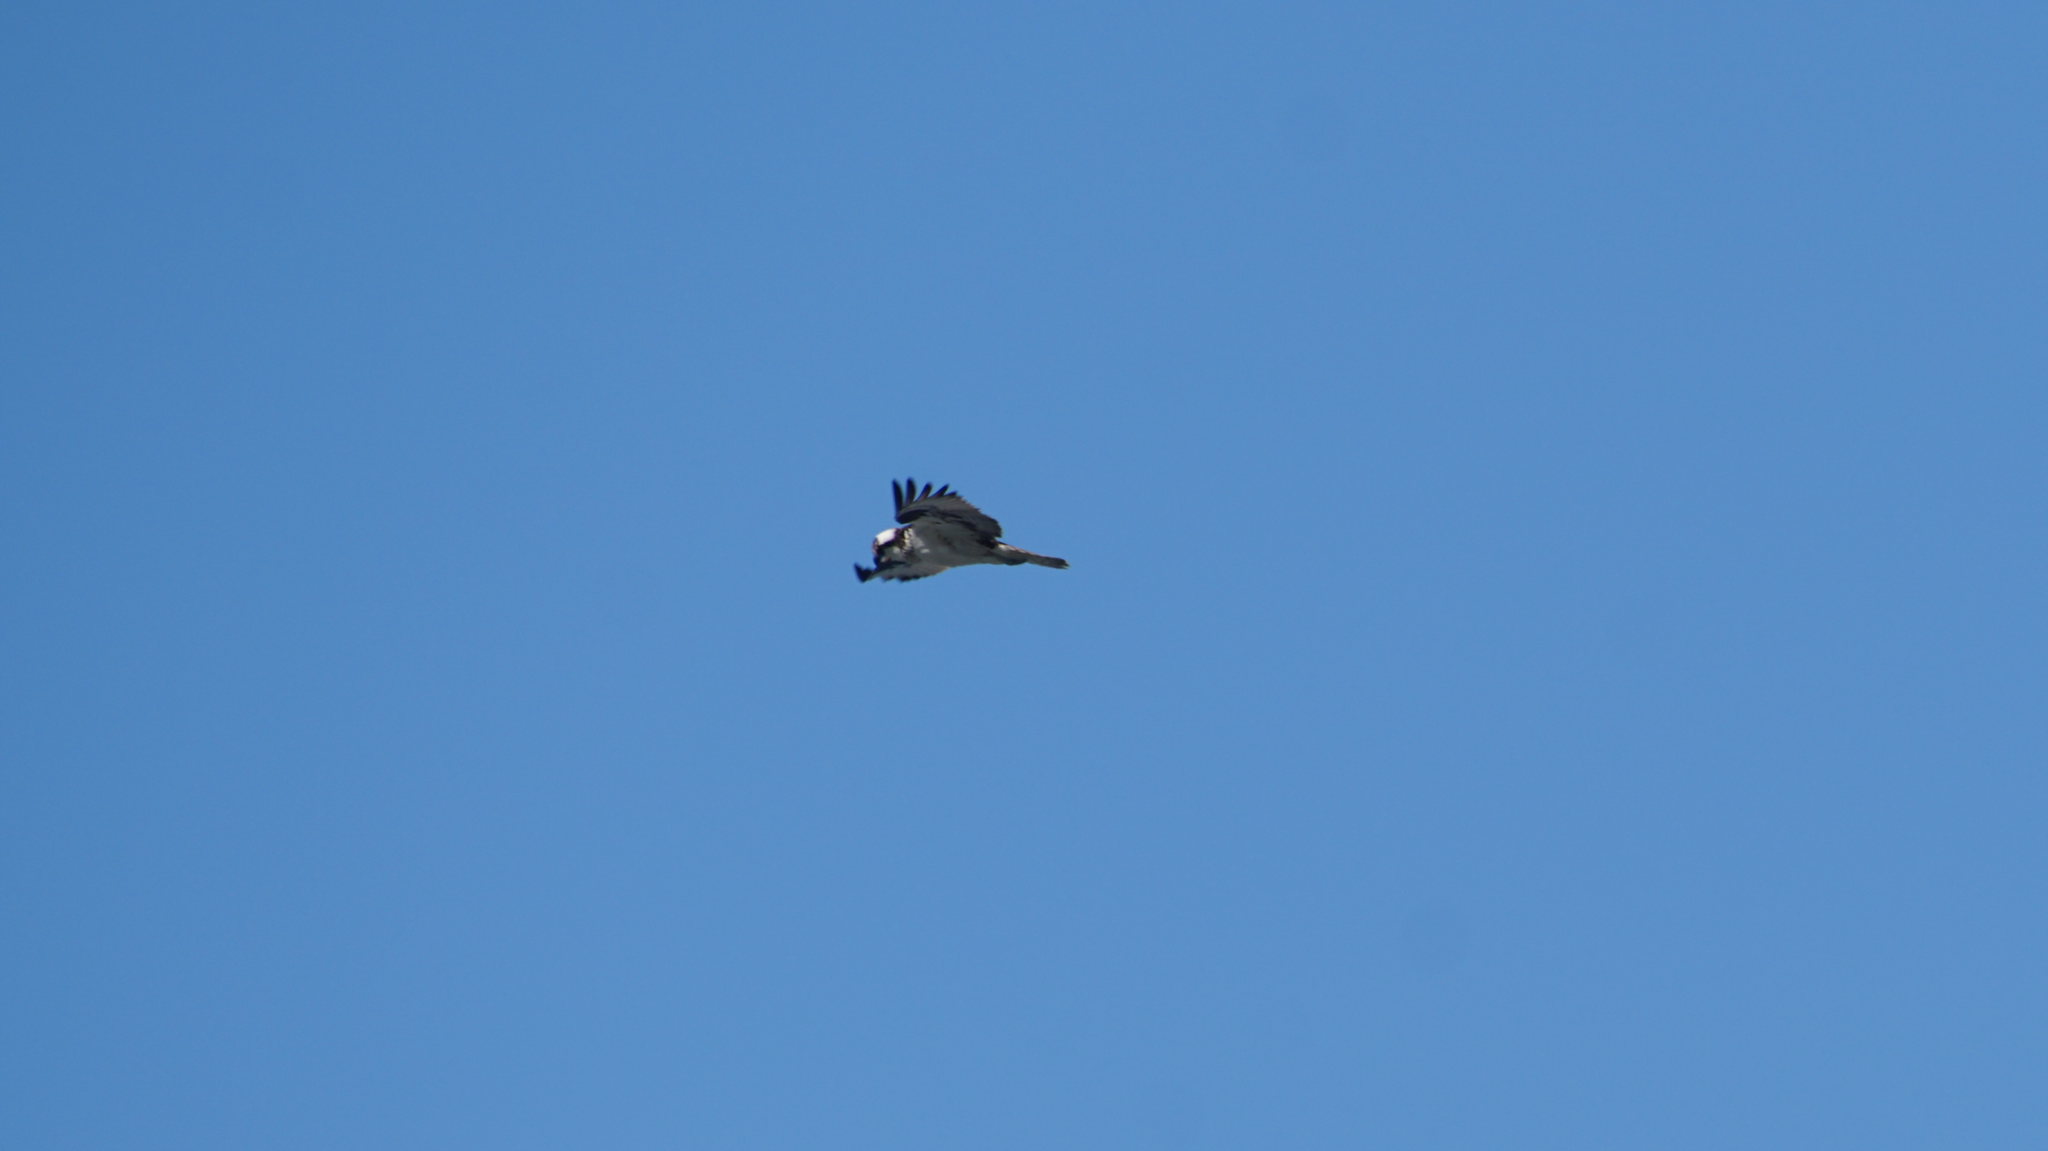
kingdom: Animalia
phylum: Chordata
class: Aves
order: Accipitriformes
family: Pandionidae
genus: Pandion
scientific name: Pandion haliaetus
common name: Osprey
